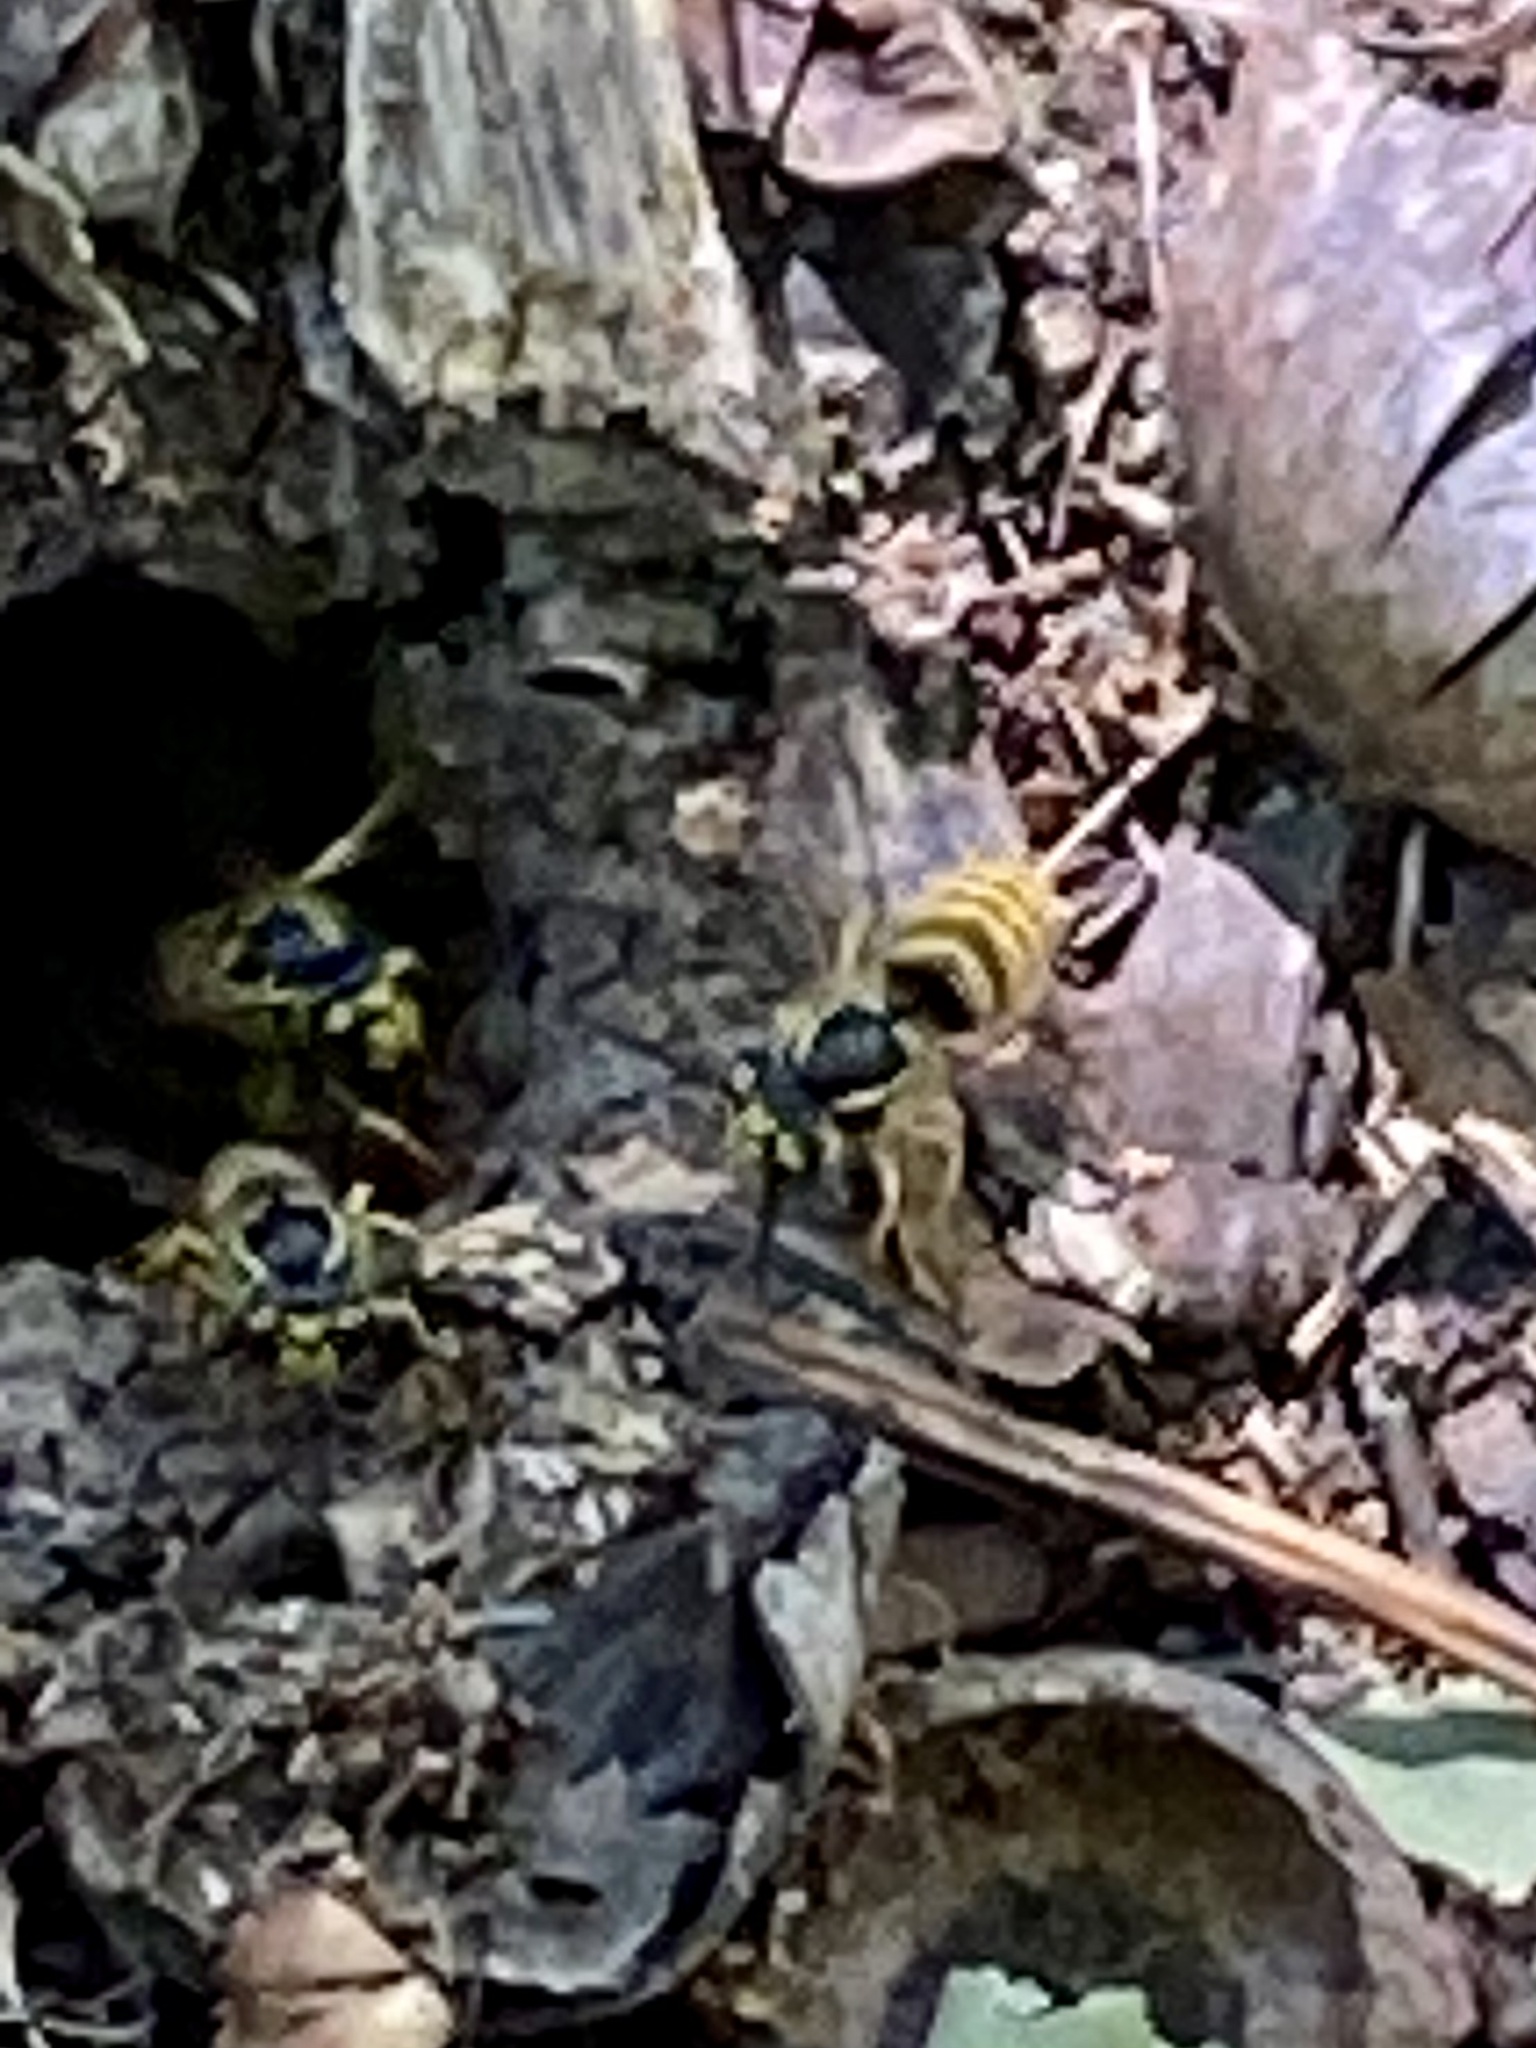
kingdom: Animalia
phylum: Arthropoda
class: Insecta
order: Hymenoptera
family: Vespidae
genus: Vespula
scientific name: Vespula flavopilosa
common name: Downy yellowjacket
